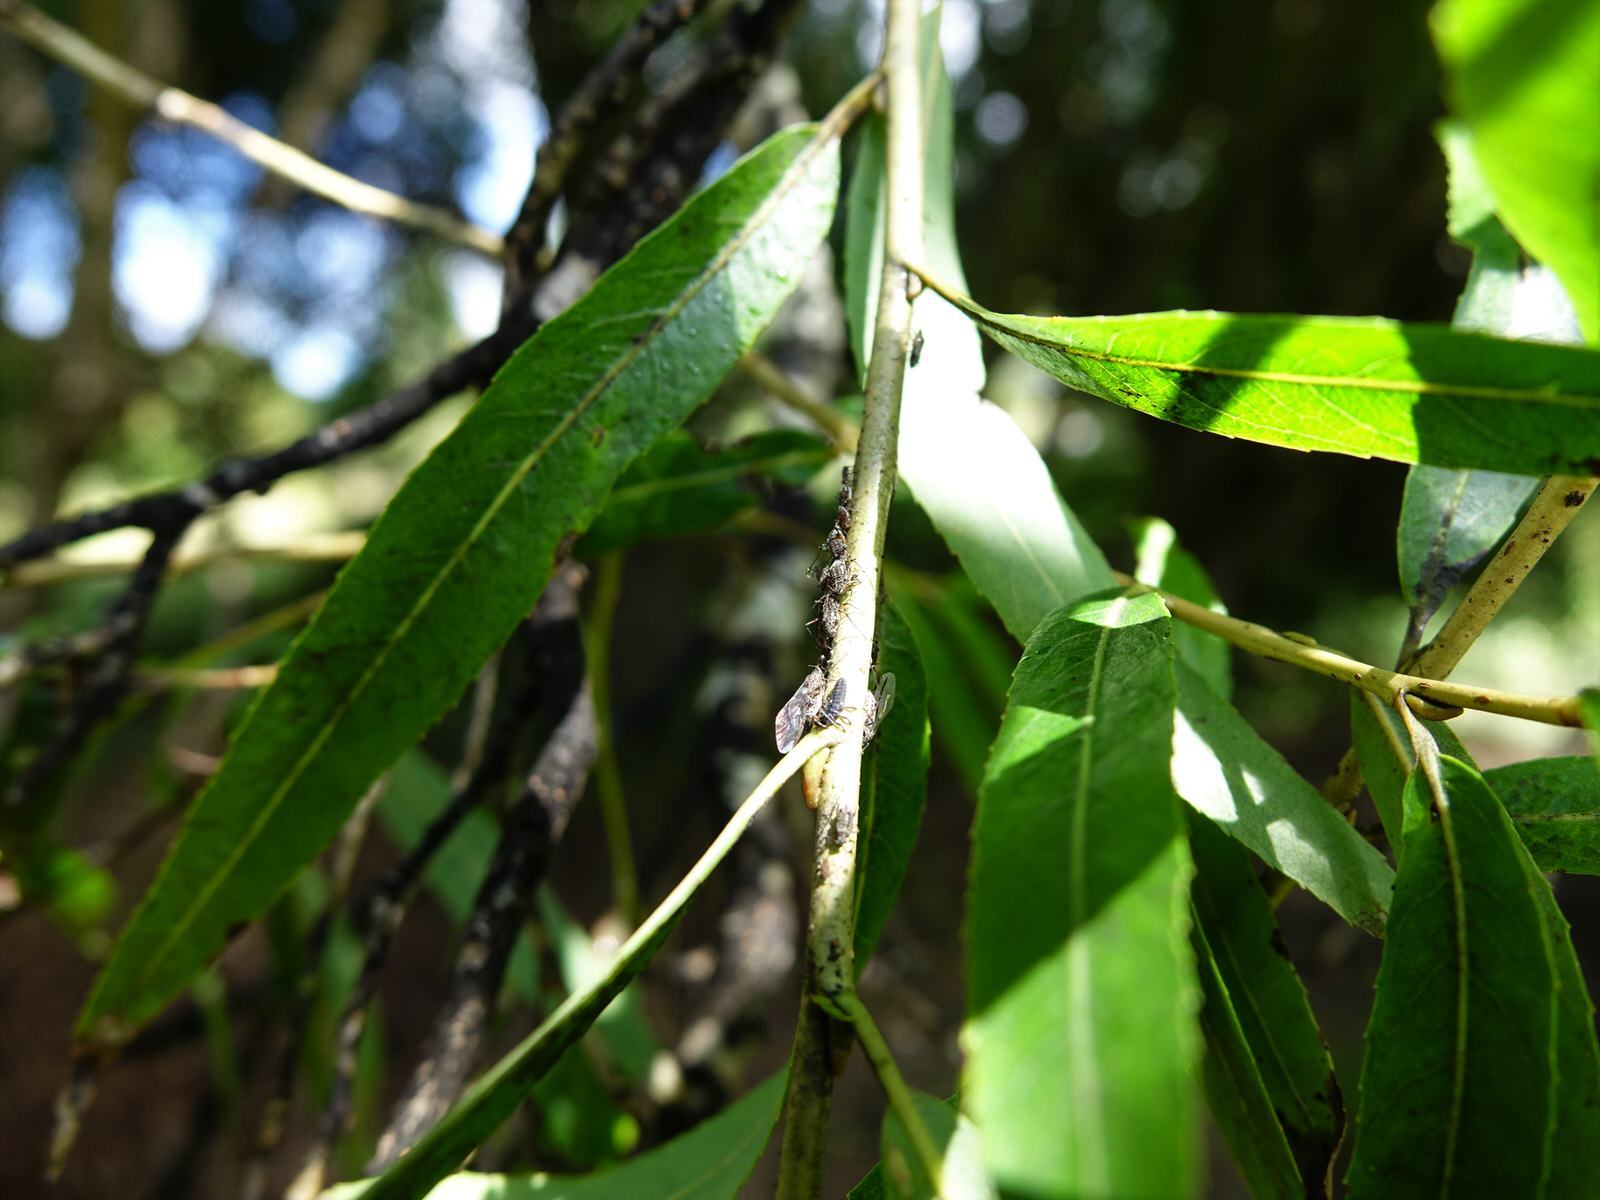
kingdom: Animalia
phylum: Arthropoda
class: Insecta
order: Hemiptera
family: Aphididae
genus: Tuberolachnus
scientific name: Tuberolachnus salignus
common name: Giant willow aphid
